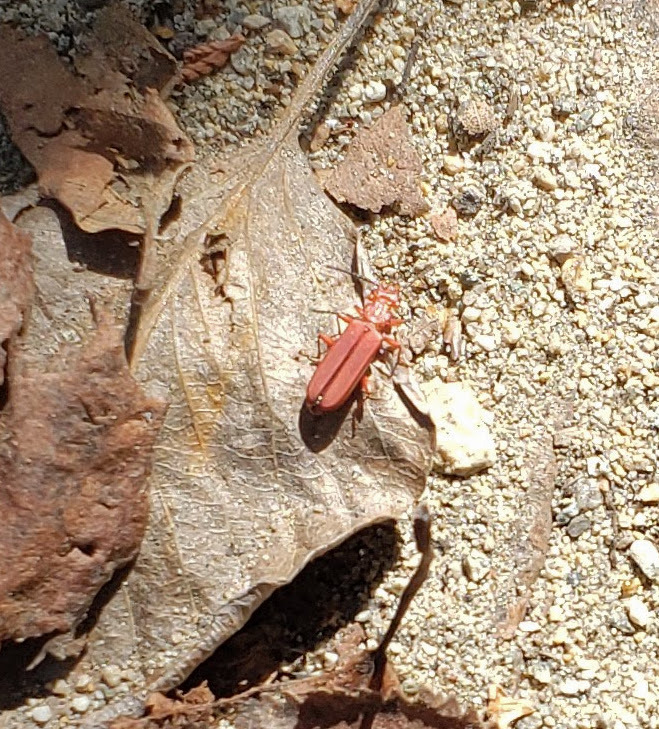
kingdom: Animalia
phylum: Arthropoda
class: Insecta
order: Coleoptera
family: Cucujidae
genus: Cucujus
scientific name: Cucujus clavipes
